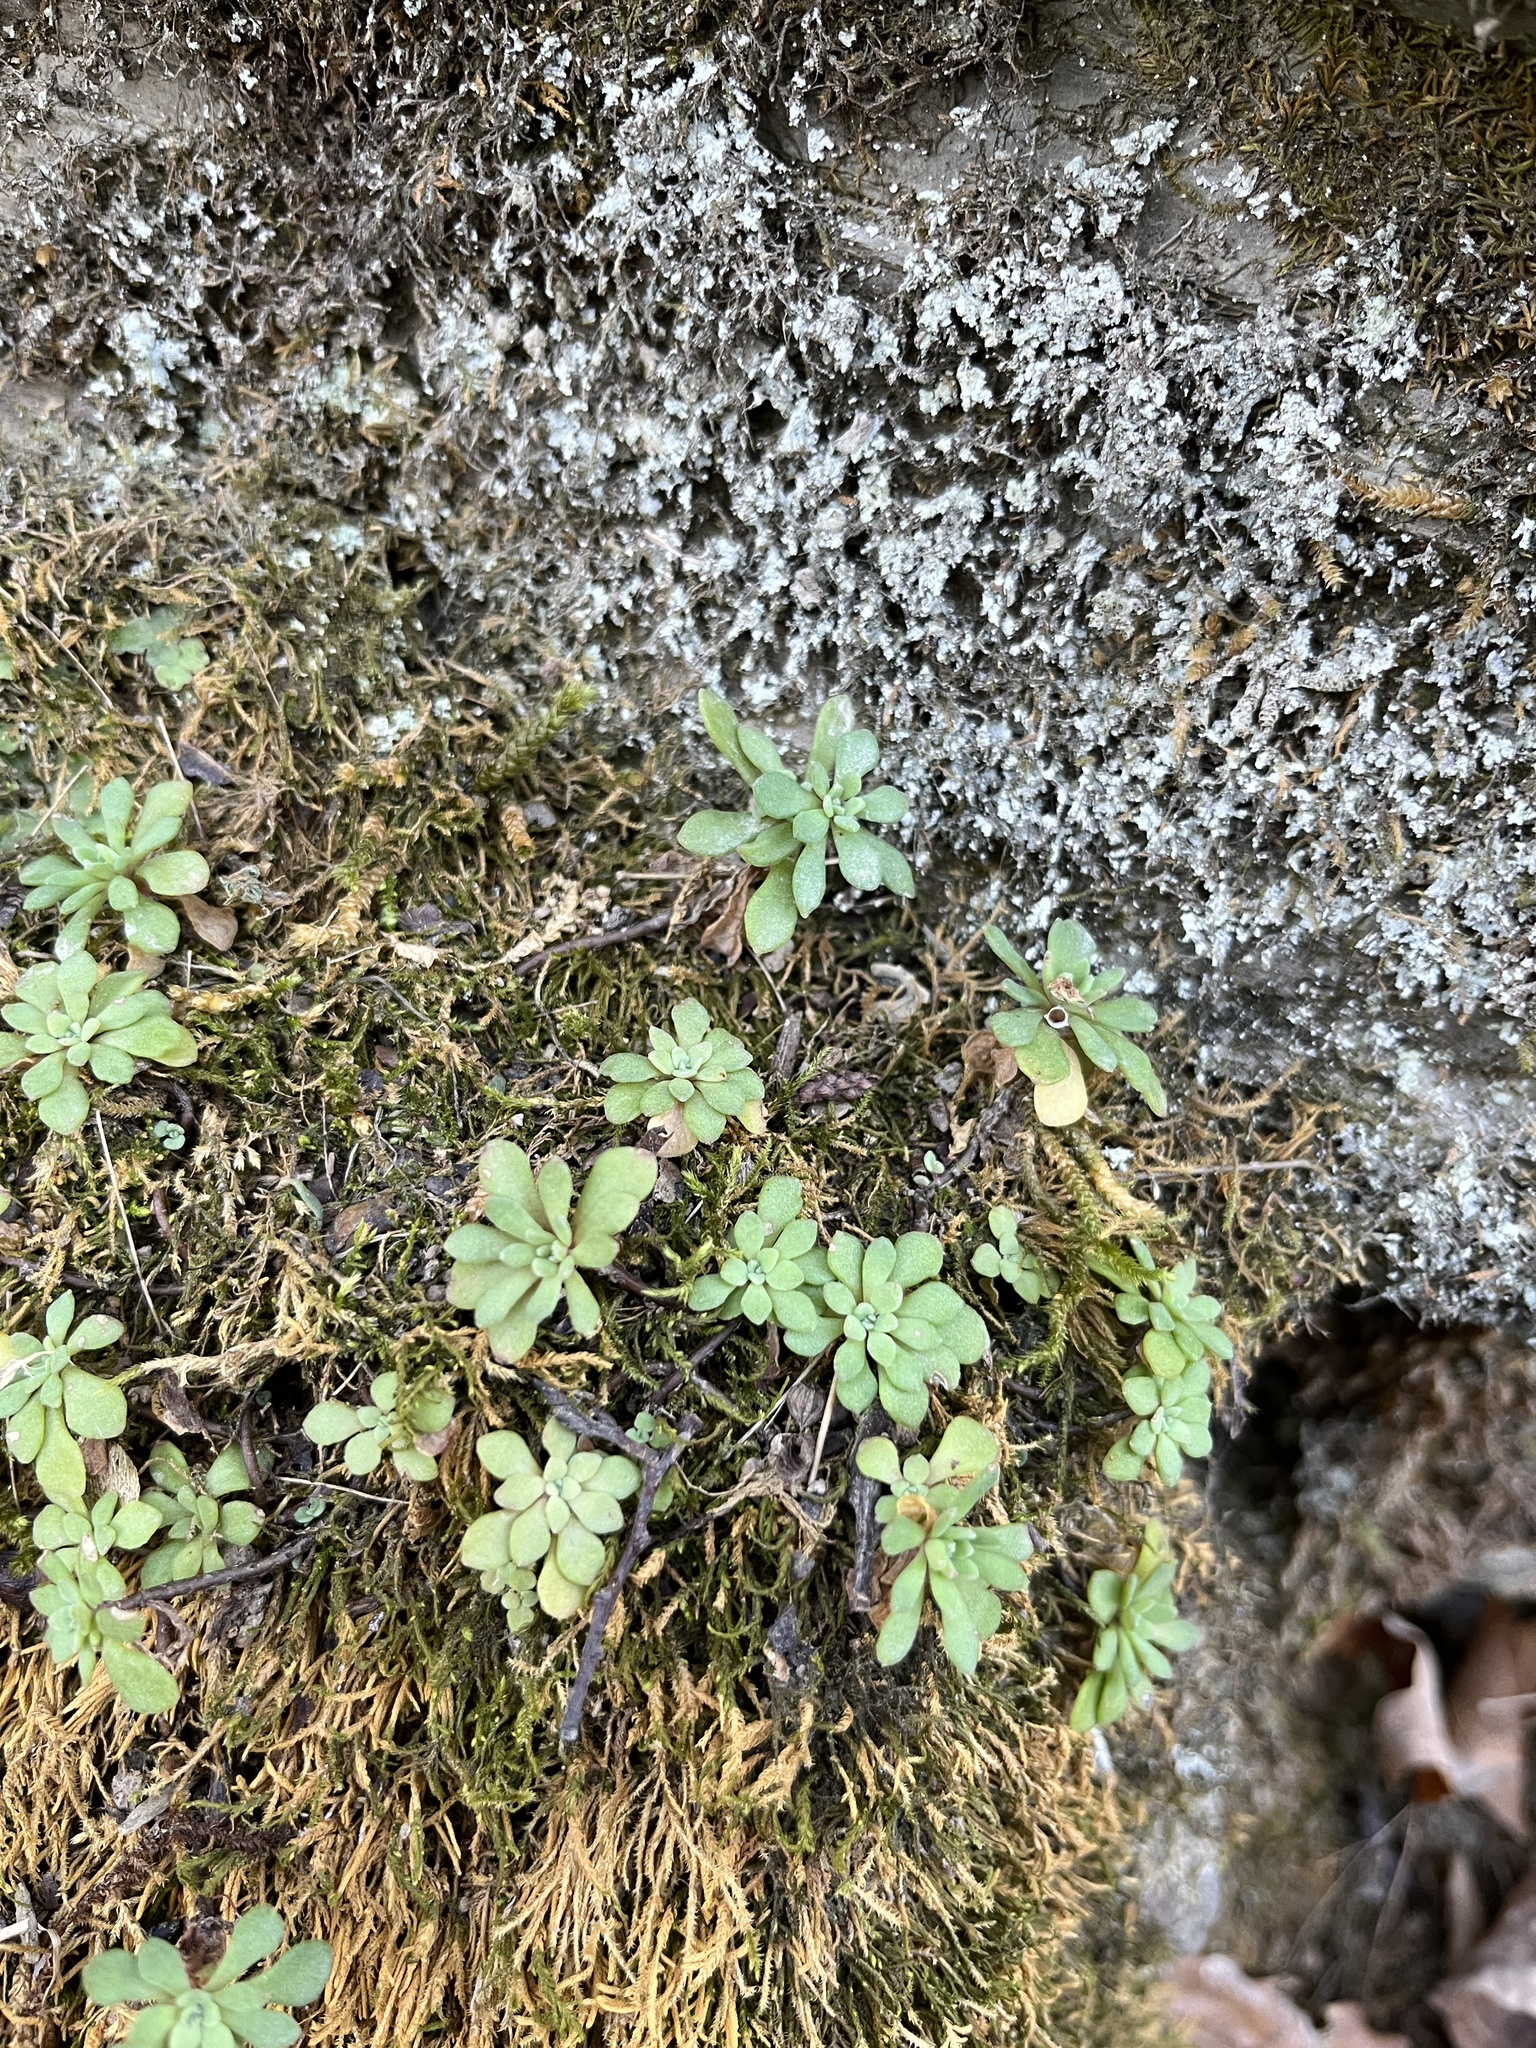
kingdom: Plantae
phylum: Tracheophyta
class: Magnoliopsida
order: Saxifragales
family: Crassulaceae
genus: Sedum
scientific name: Sedum glaucophyllum
